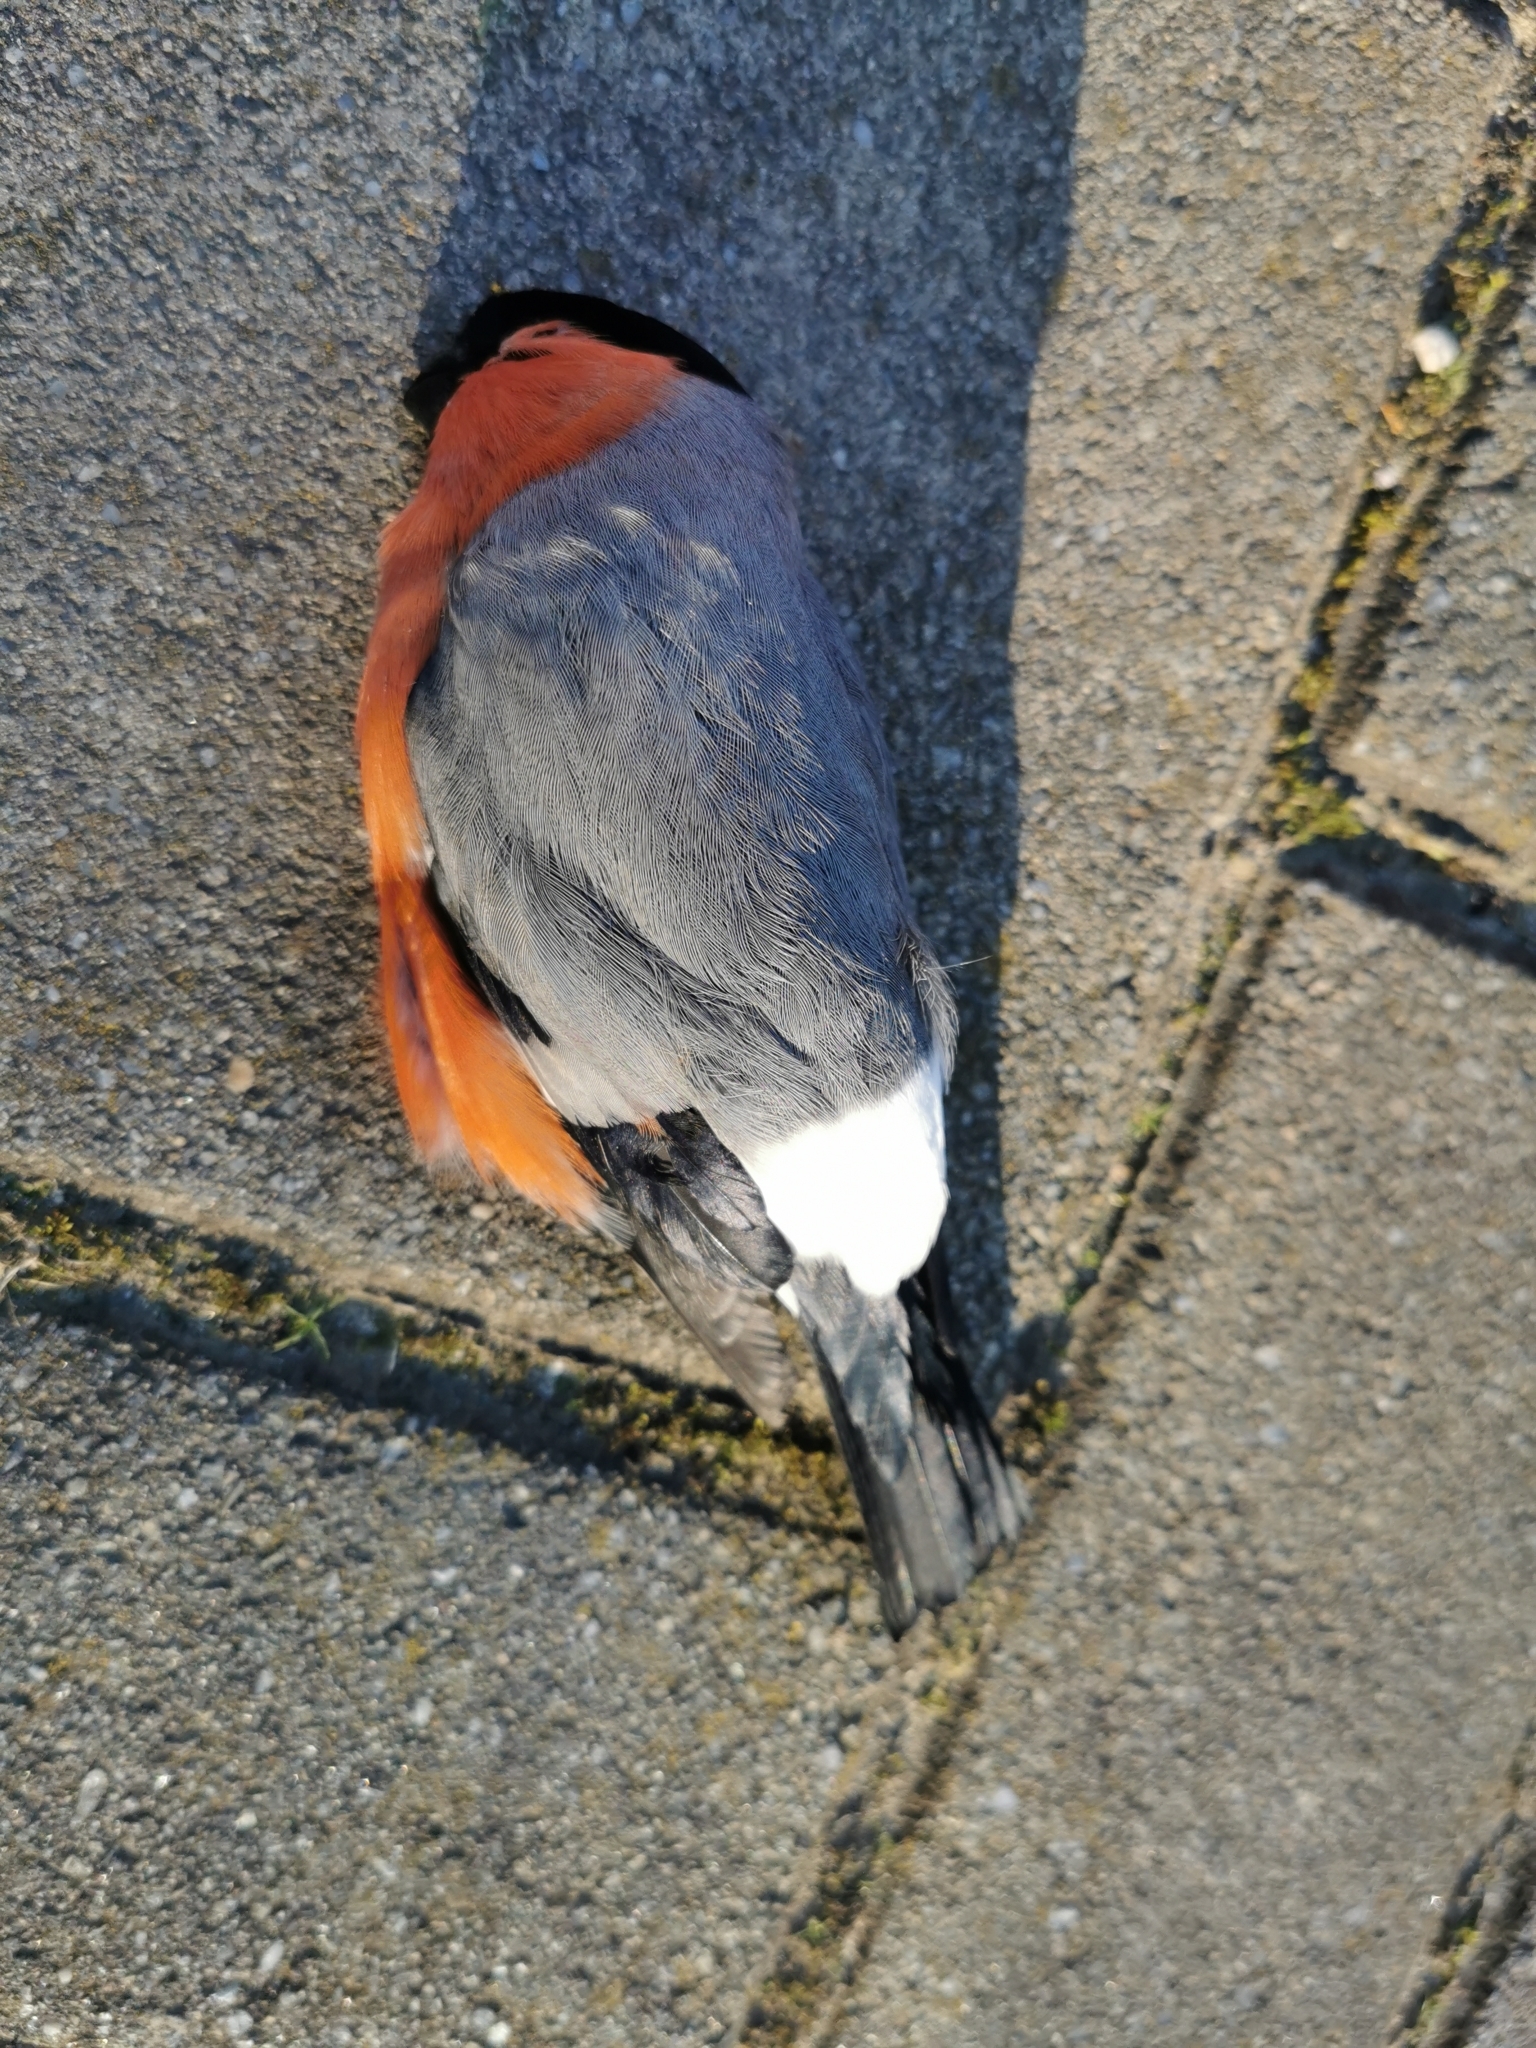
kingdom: Animalia
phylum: Chordata
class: Aves
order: Passeriformes
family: Fringillidae
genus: Pyrrhula
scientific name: Pyrrhula pyrrhula
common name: Eurasian bullfinch
